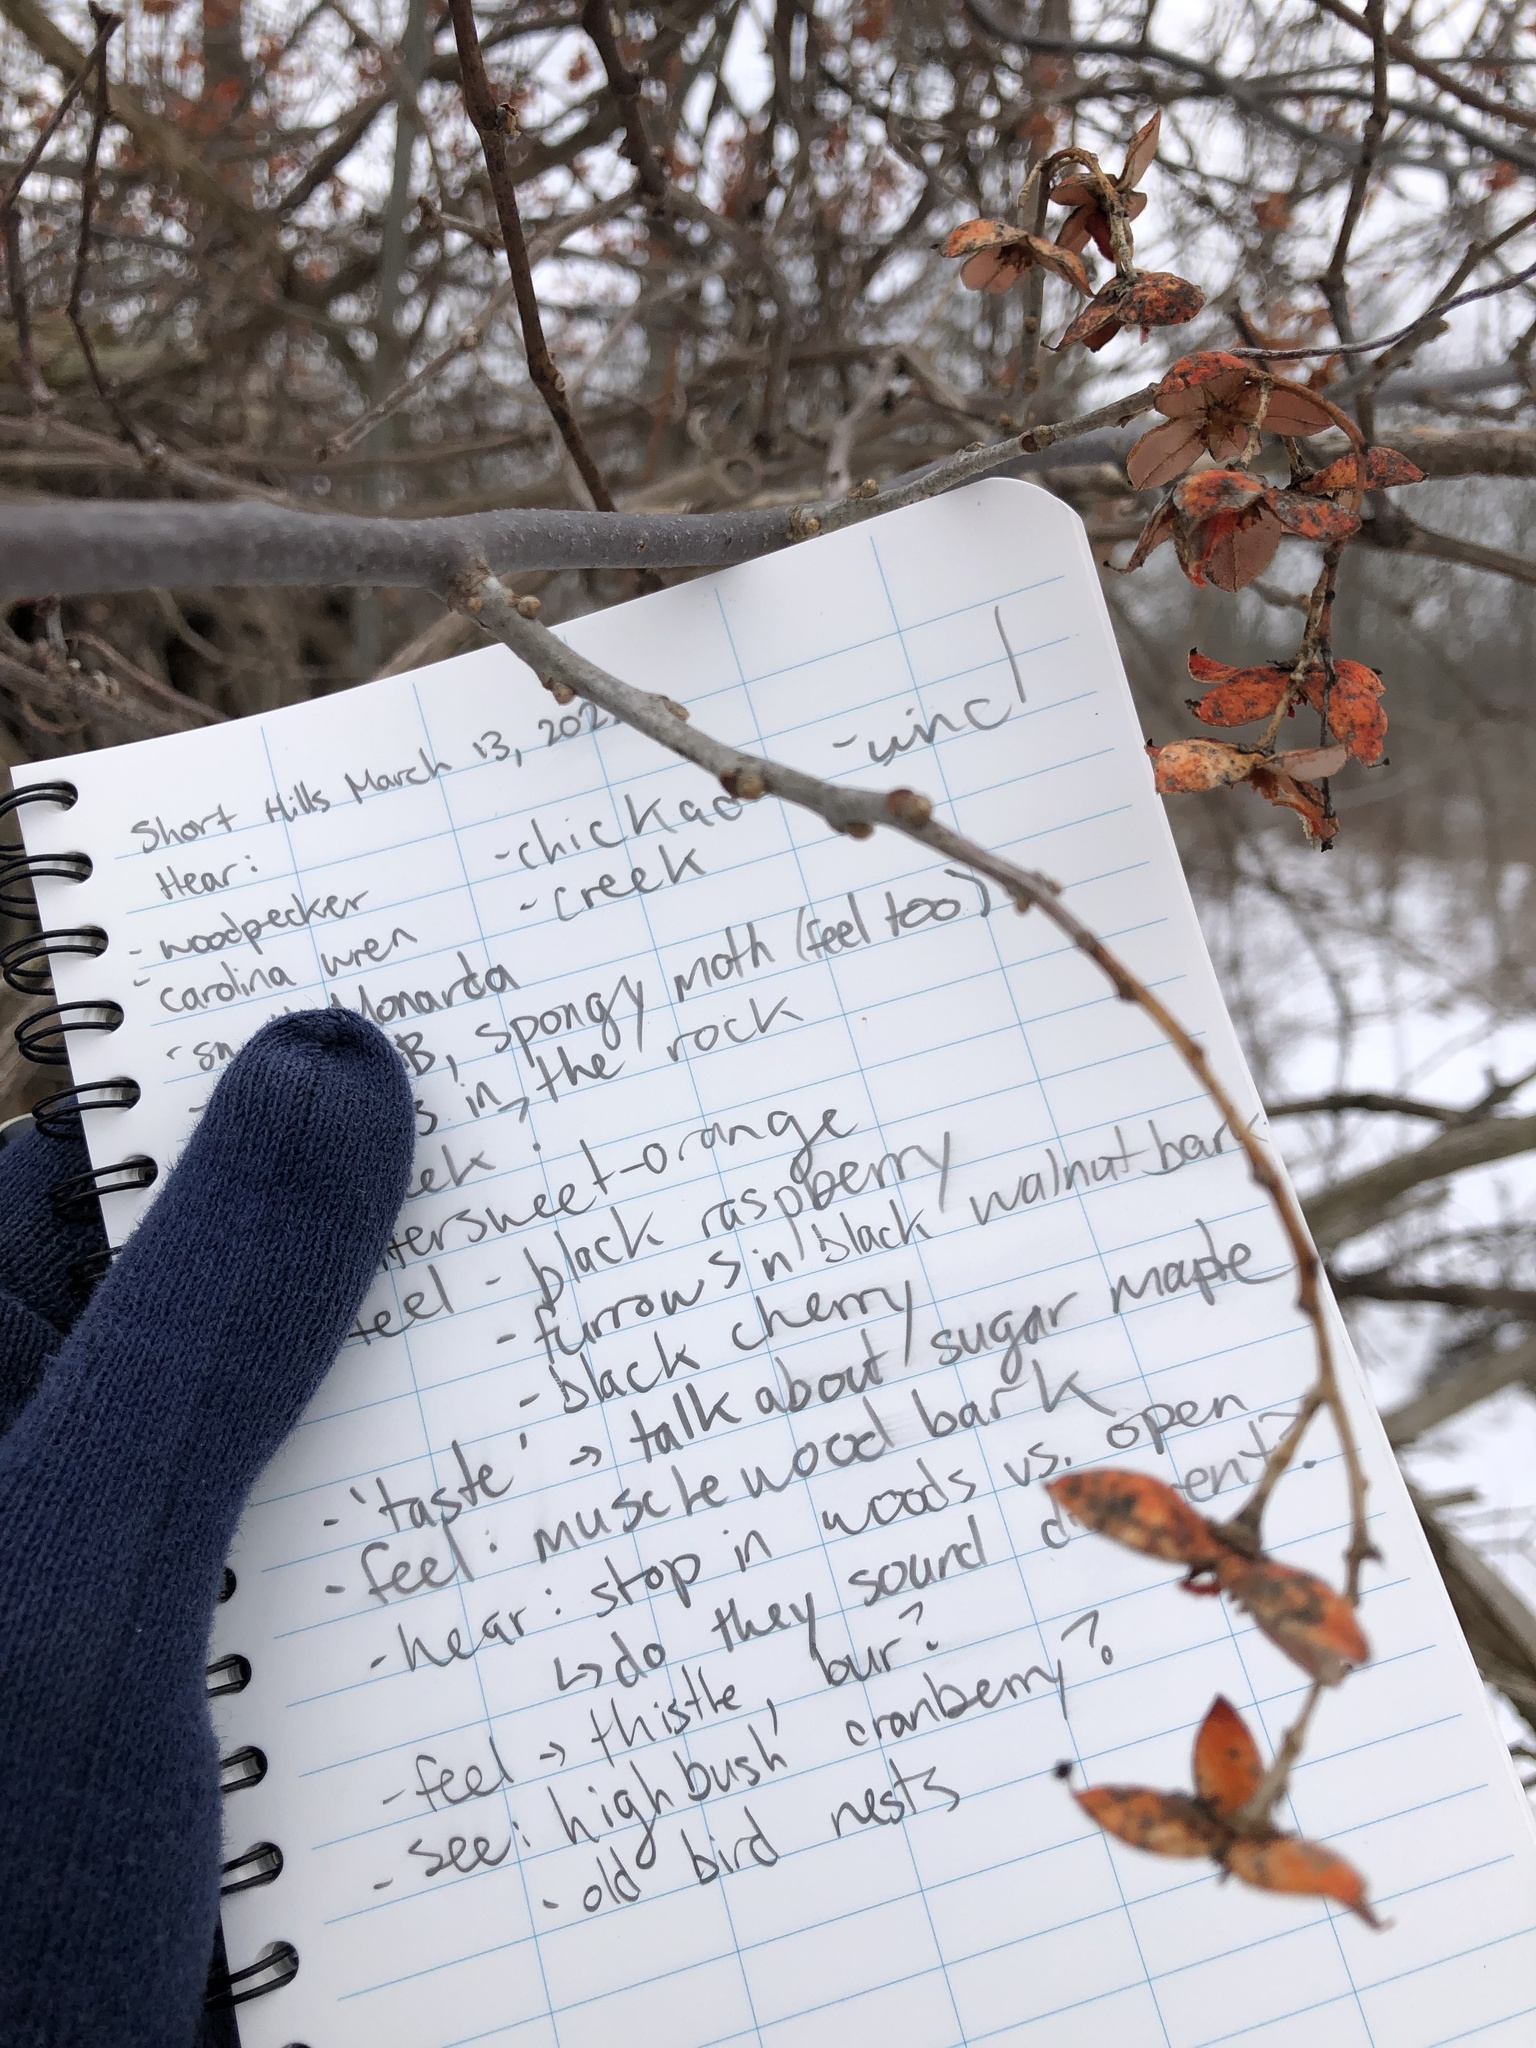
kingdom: Plantae
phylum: Tracheophyta
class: Magnoliopsida
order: Celastrales
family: Celastraceae
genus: Celastrus
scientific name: Celastrus scandens
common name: American bittersweet
